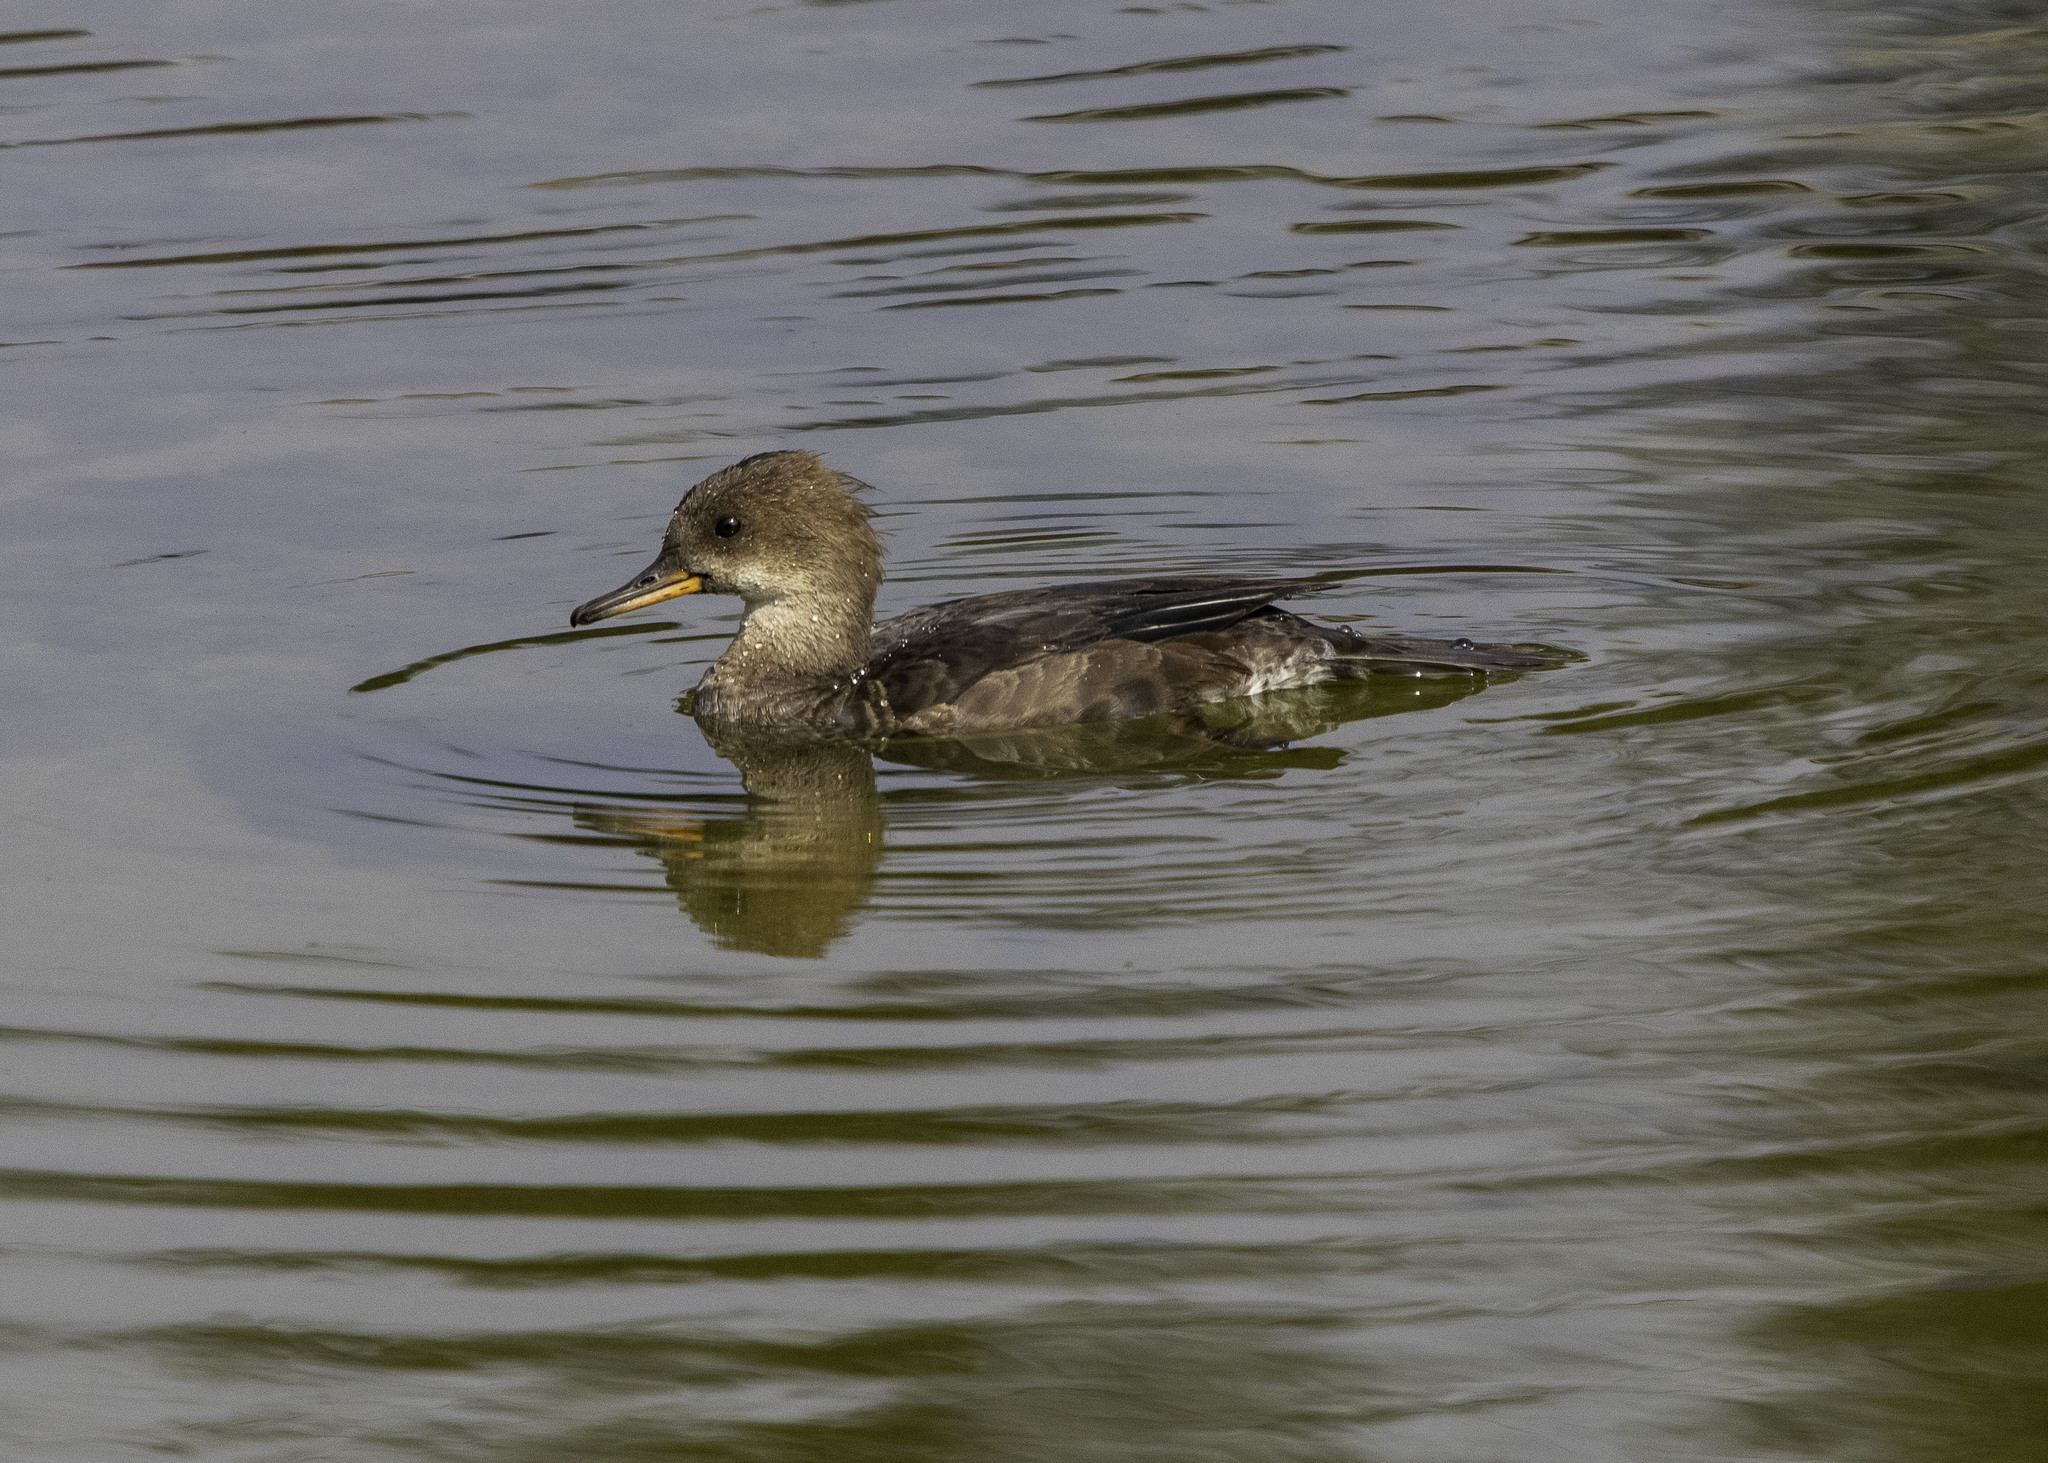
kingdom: Animalia
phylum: Chordata
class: Aves
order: Anseriformes
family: Anatidae
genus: Lophodytes
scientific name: Lophodytes cucullatus
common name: Hooded merganser
